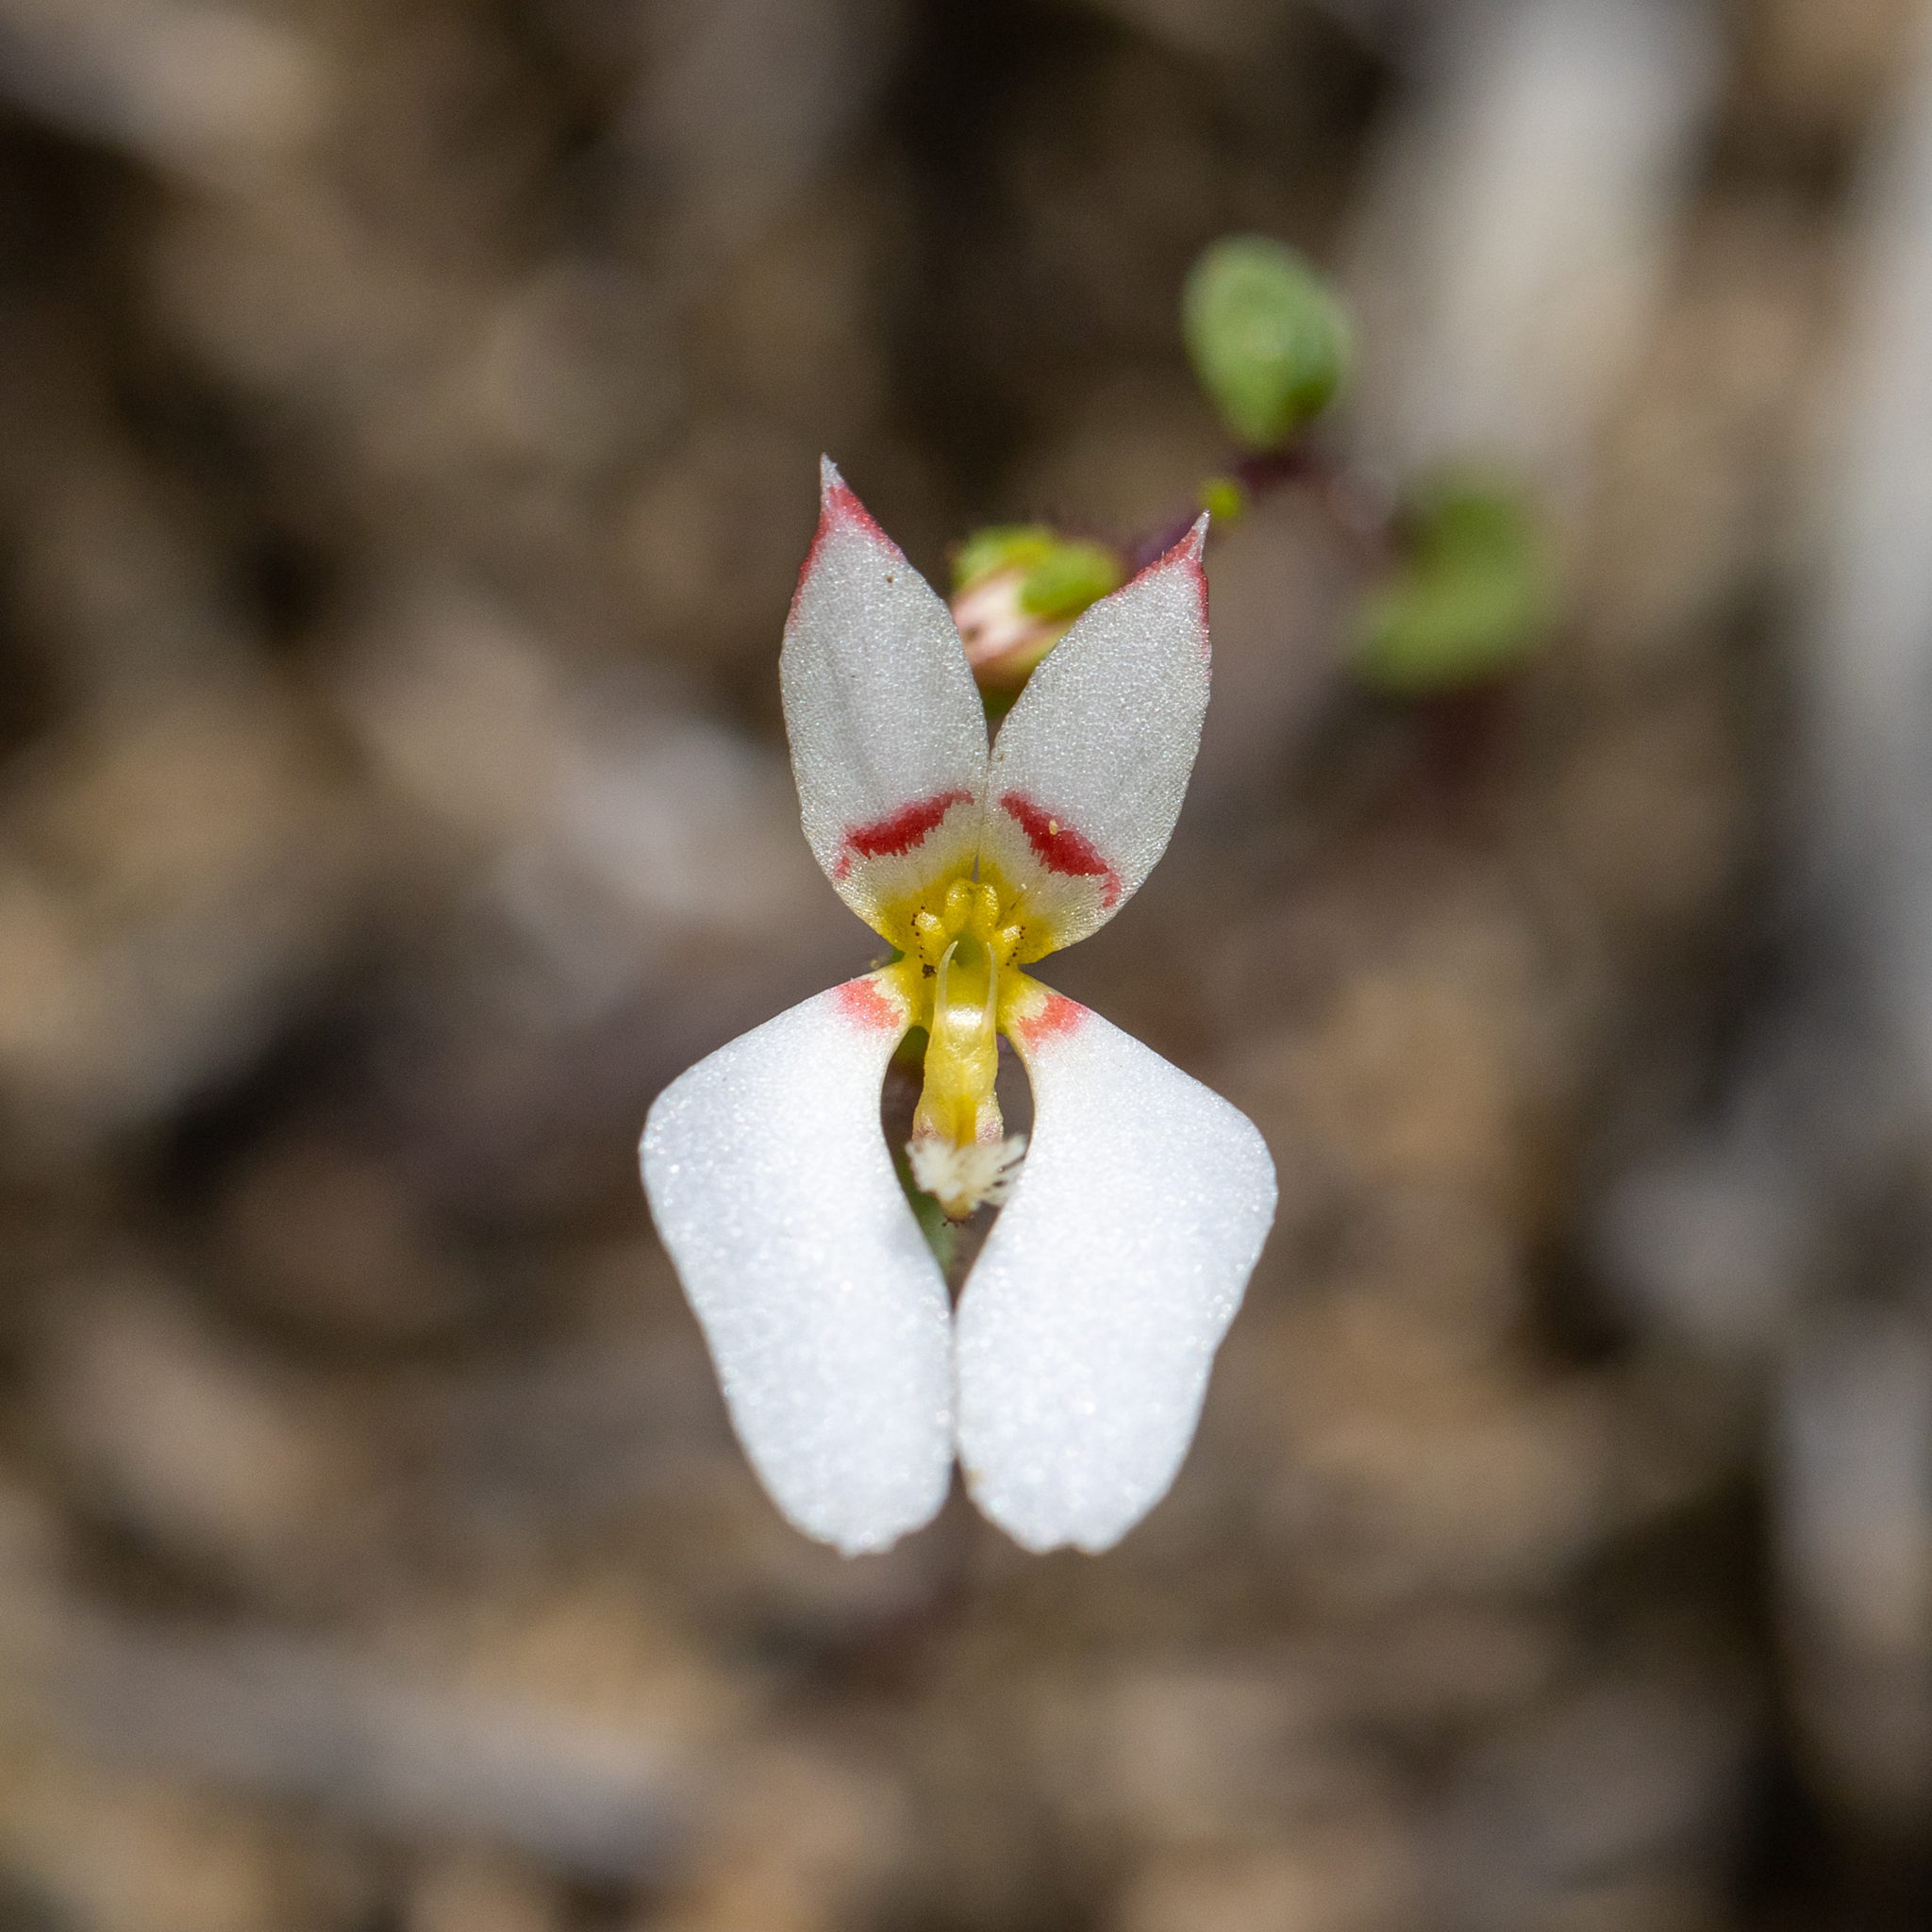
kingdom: Plantae
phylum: Tracheophyta
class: Magnoliopsida
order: Asterales
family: Stylidiaceae
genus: Levenhookia
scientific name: Levenhookia pauciflora
